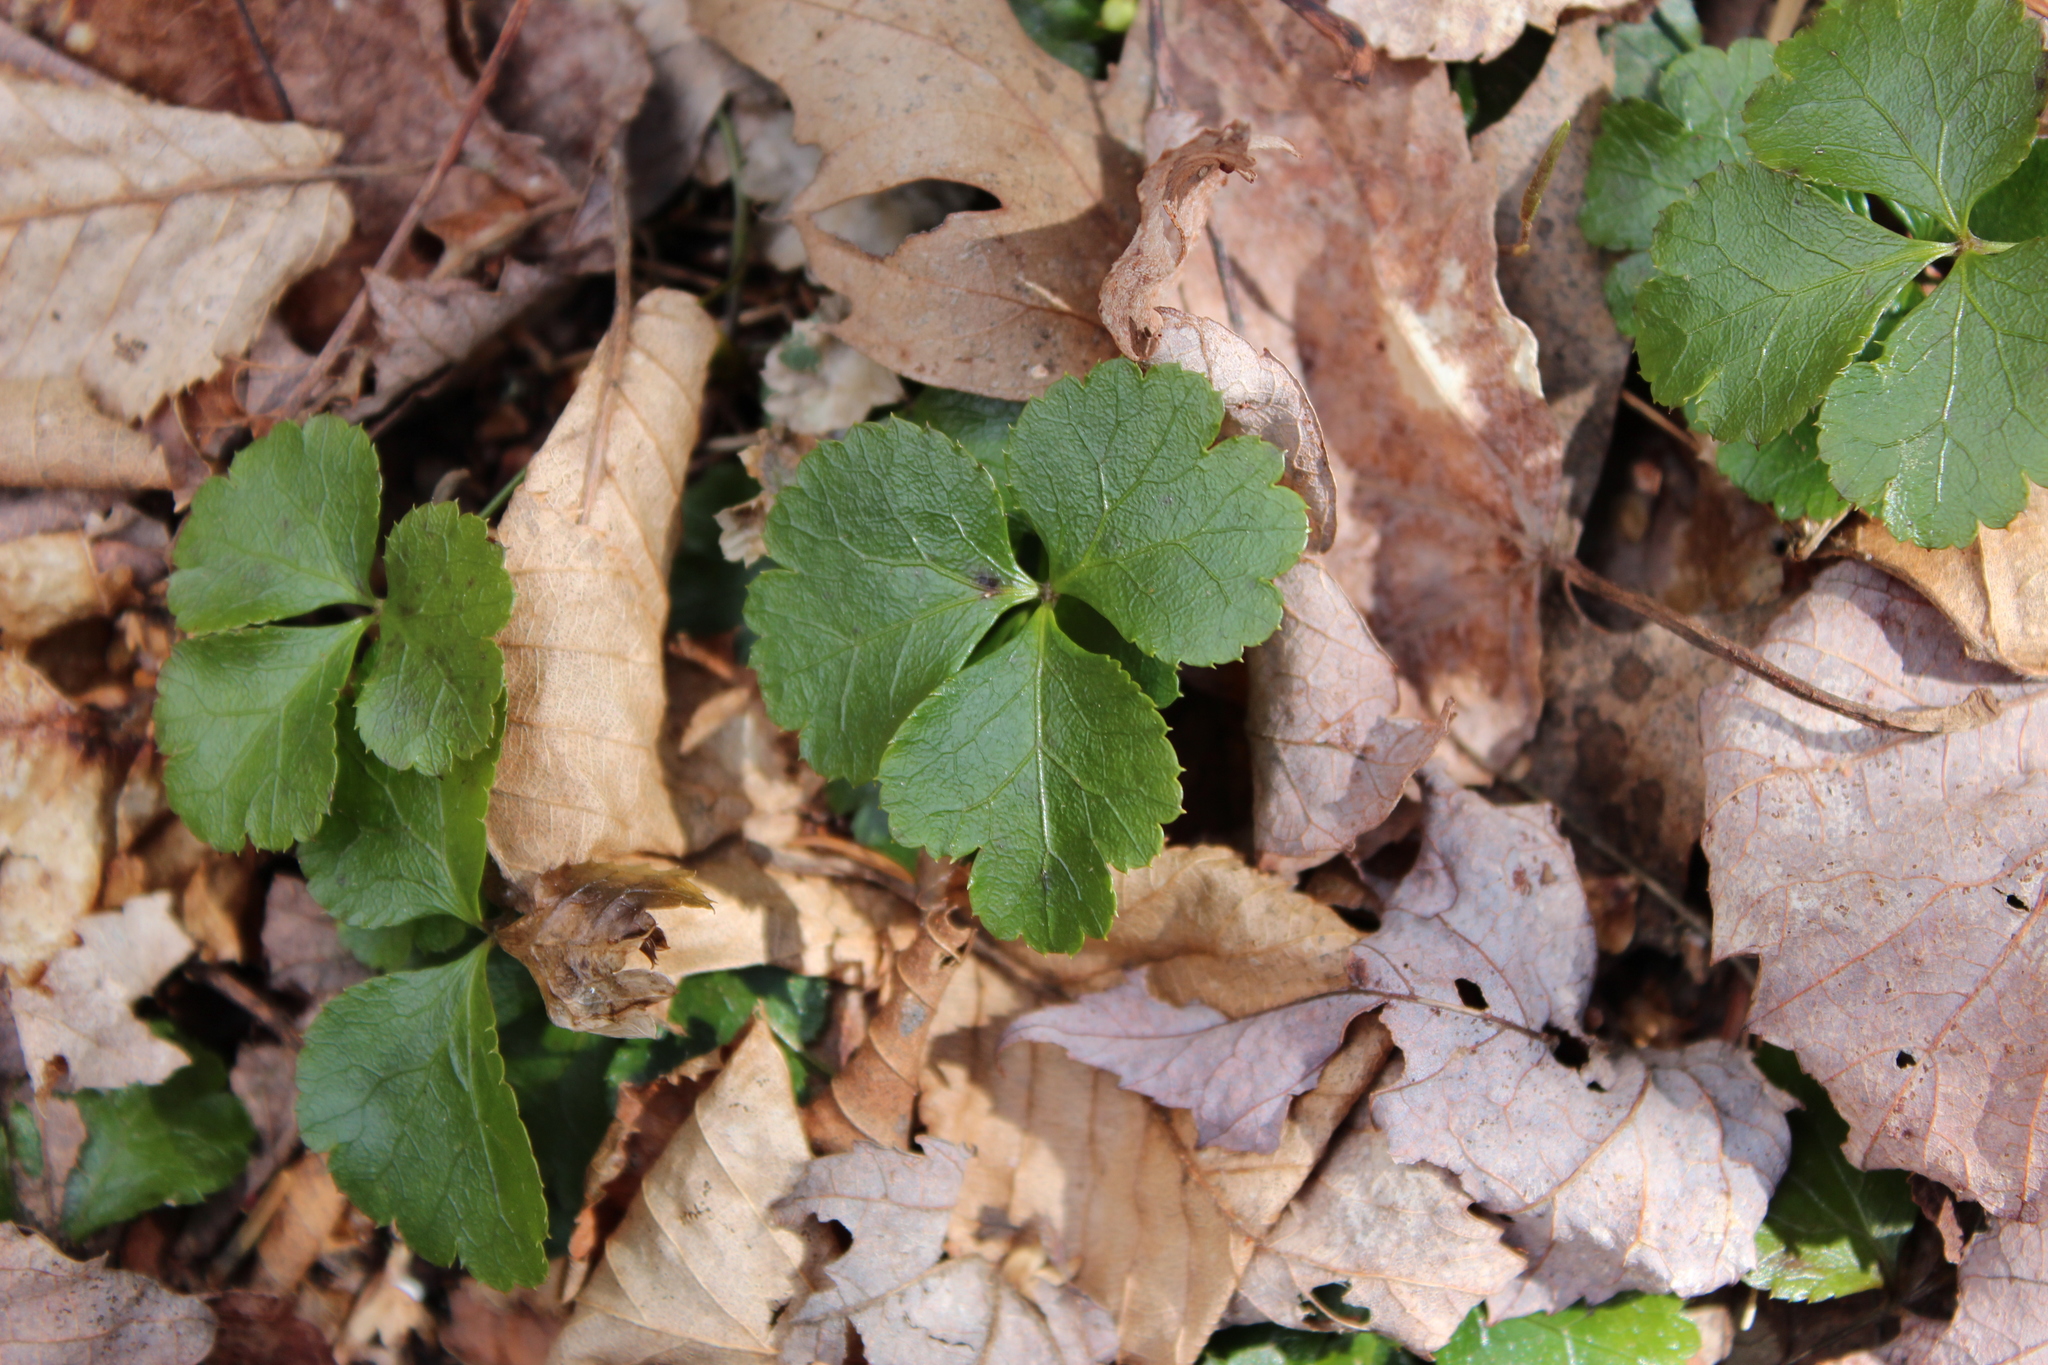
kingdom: Plantae
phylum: Tracheophyta
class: Magnoliopsida
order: Ranunculales
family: Ranunculaceae
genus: Coptis
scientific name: Coptis trifolia
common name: Canker-root
